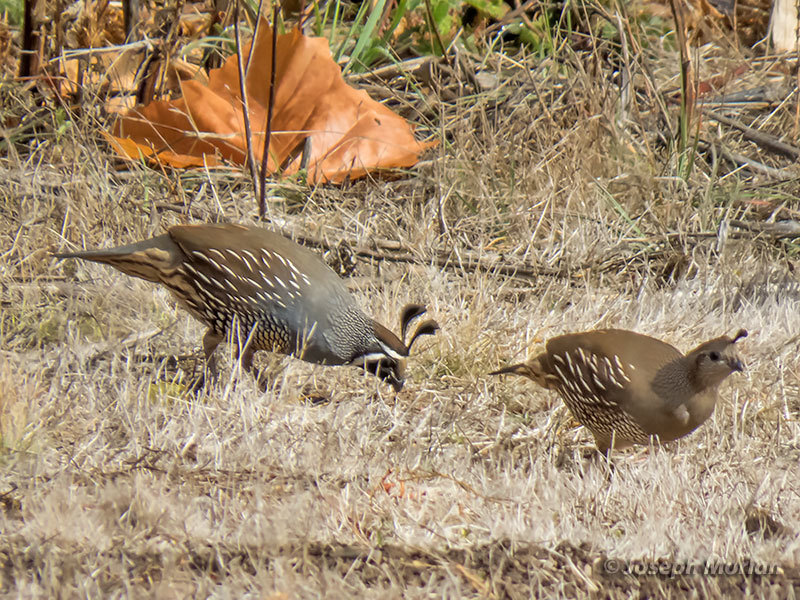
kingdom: Animalia
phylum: Chordata
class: Aves
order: Galliformes
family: Odontophoridae
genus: Callipepla
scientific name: Callipepla californica
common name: California quail
